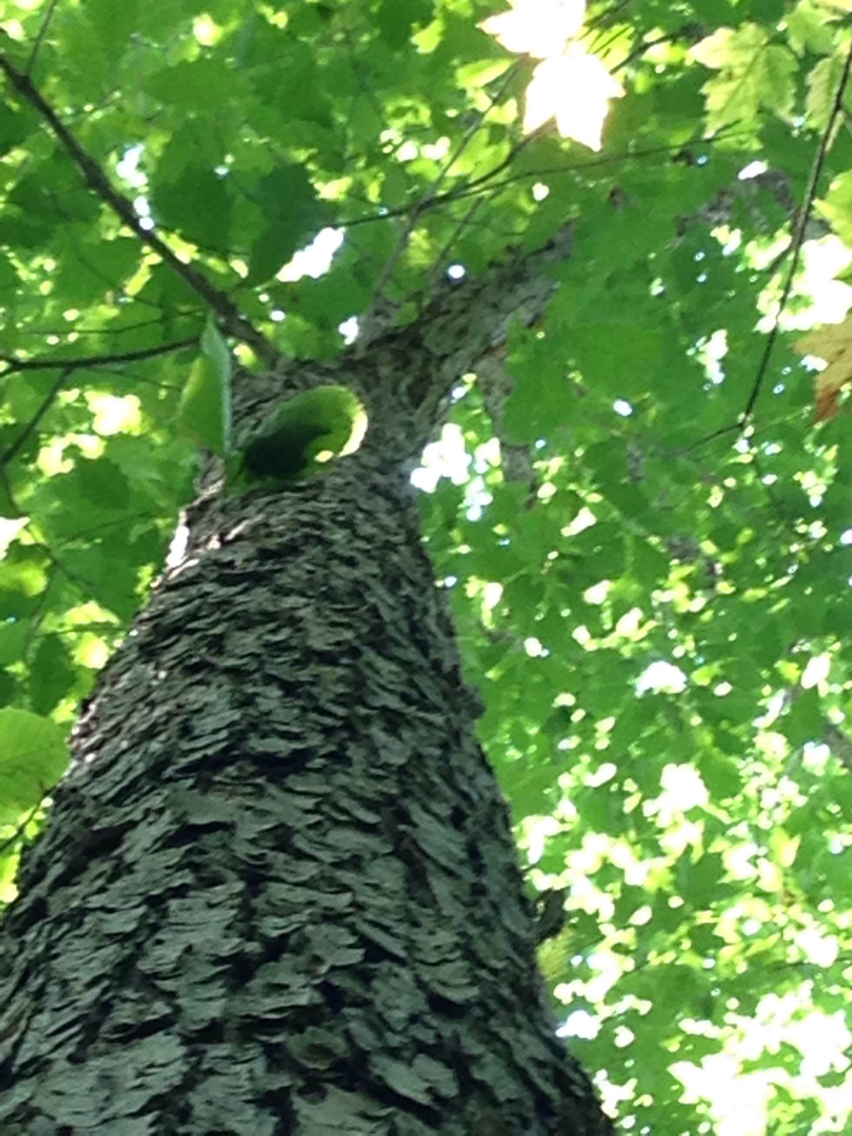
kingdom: Plantae
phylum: Tracheophyta
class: Magnoliopsida
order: Fagales
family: Fagaceae
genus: Quercus
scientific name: Quercus muehlenbergii
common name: Chinkapin oak
